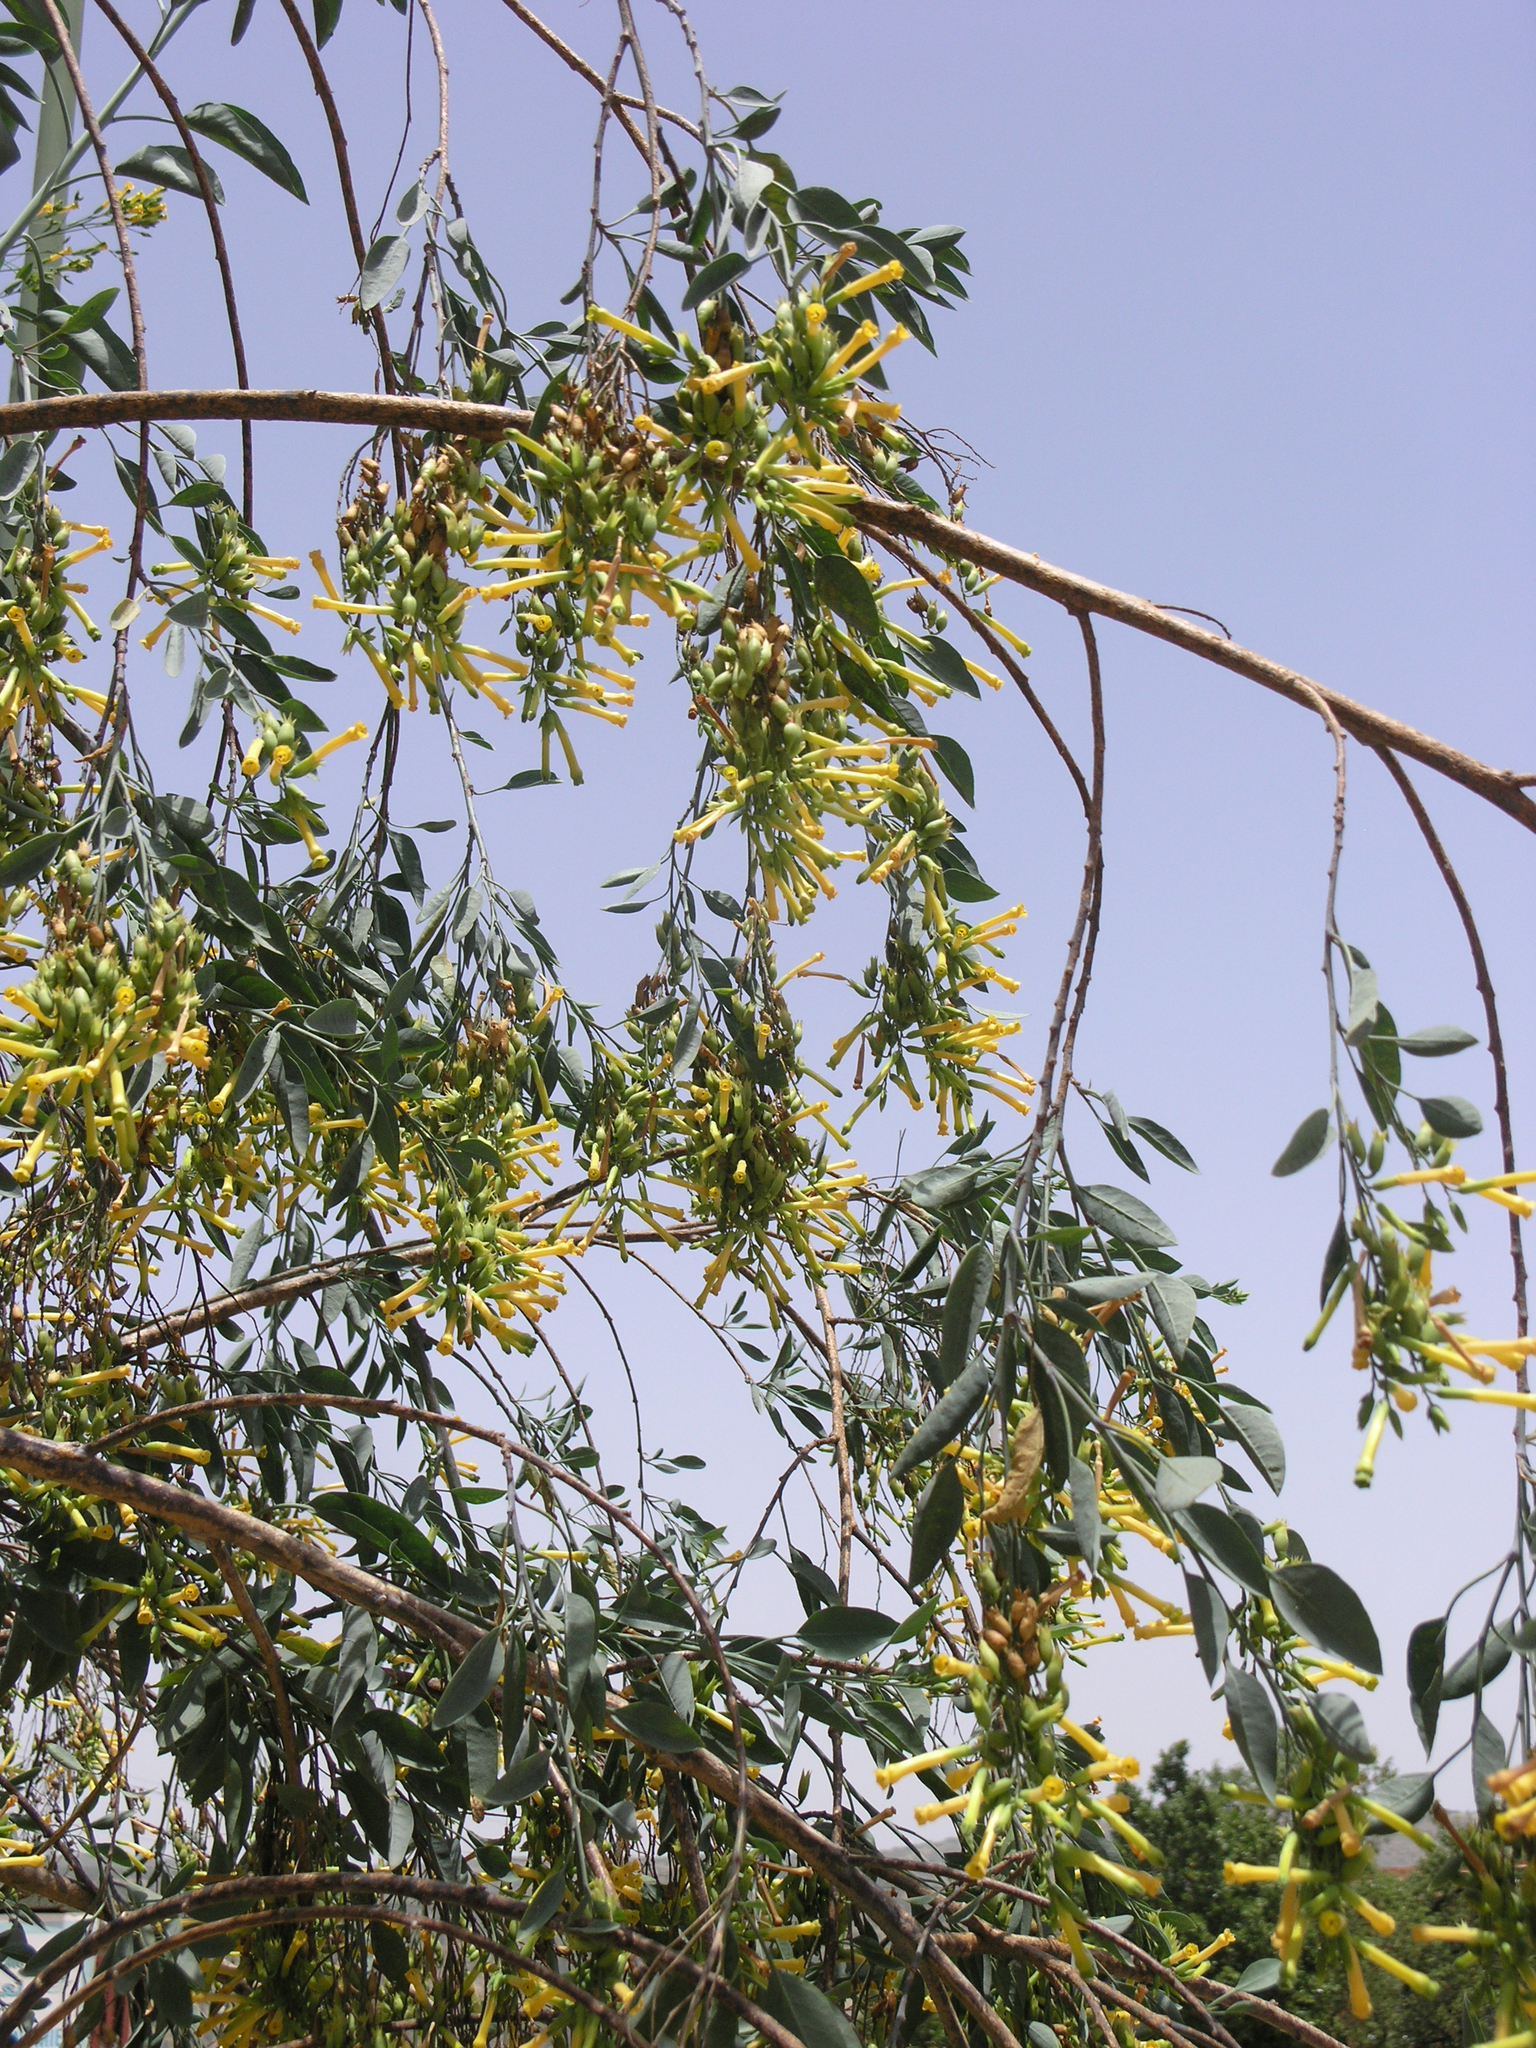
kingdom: Plantae
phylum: Tracheophyta
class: Magnoliopsida
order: Solanales
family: Solanaceae
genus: Nicotiana
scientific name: Nicotiana glauca
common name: Tree tobacco
